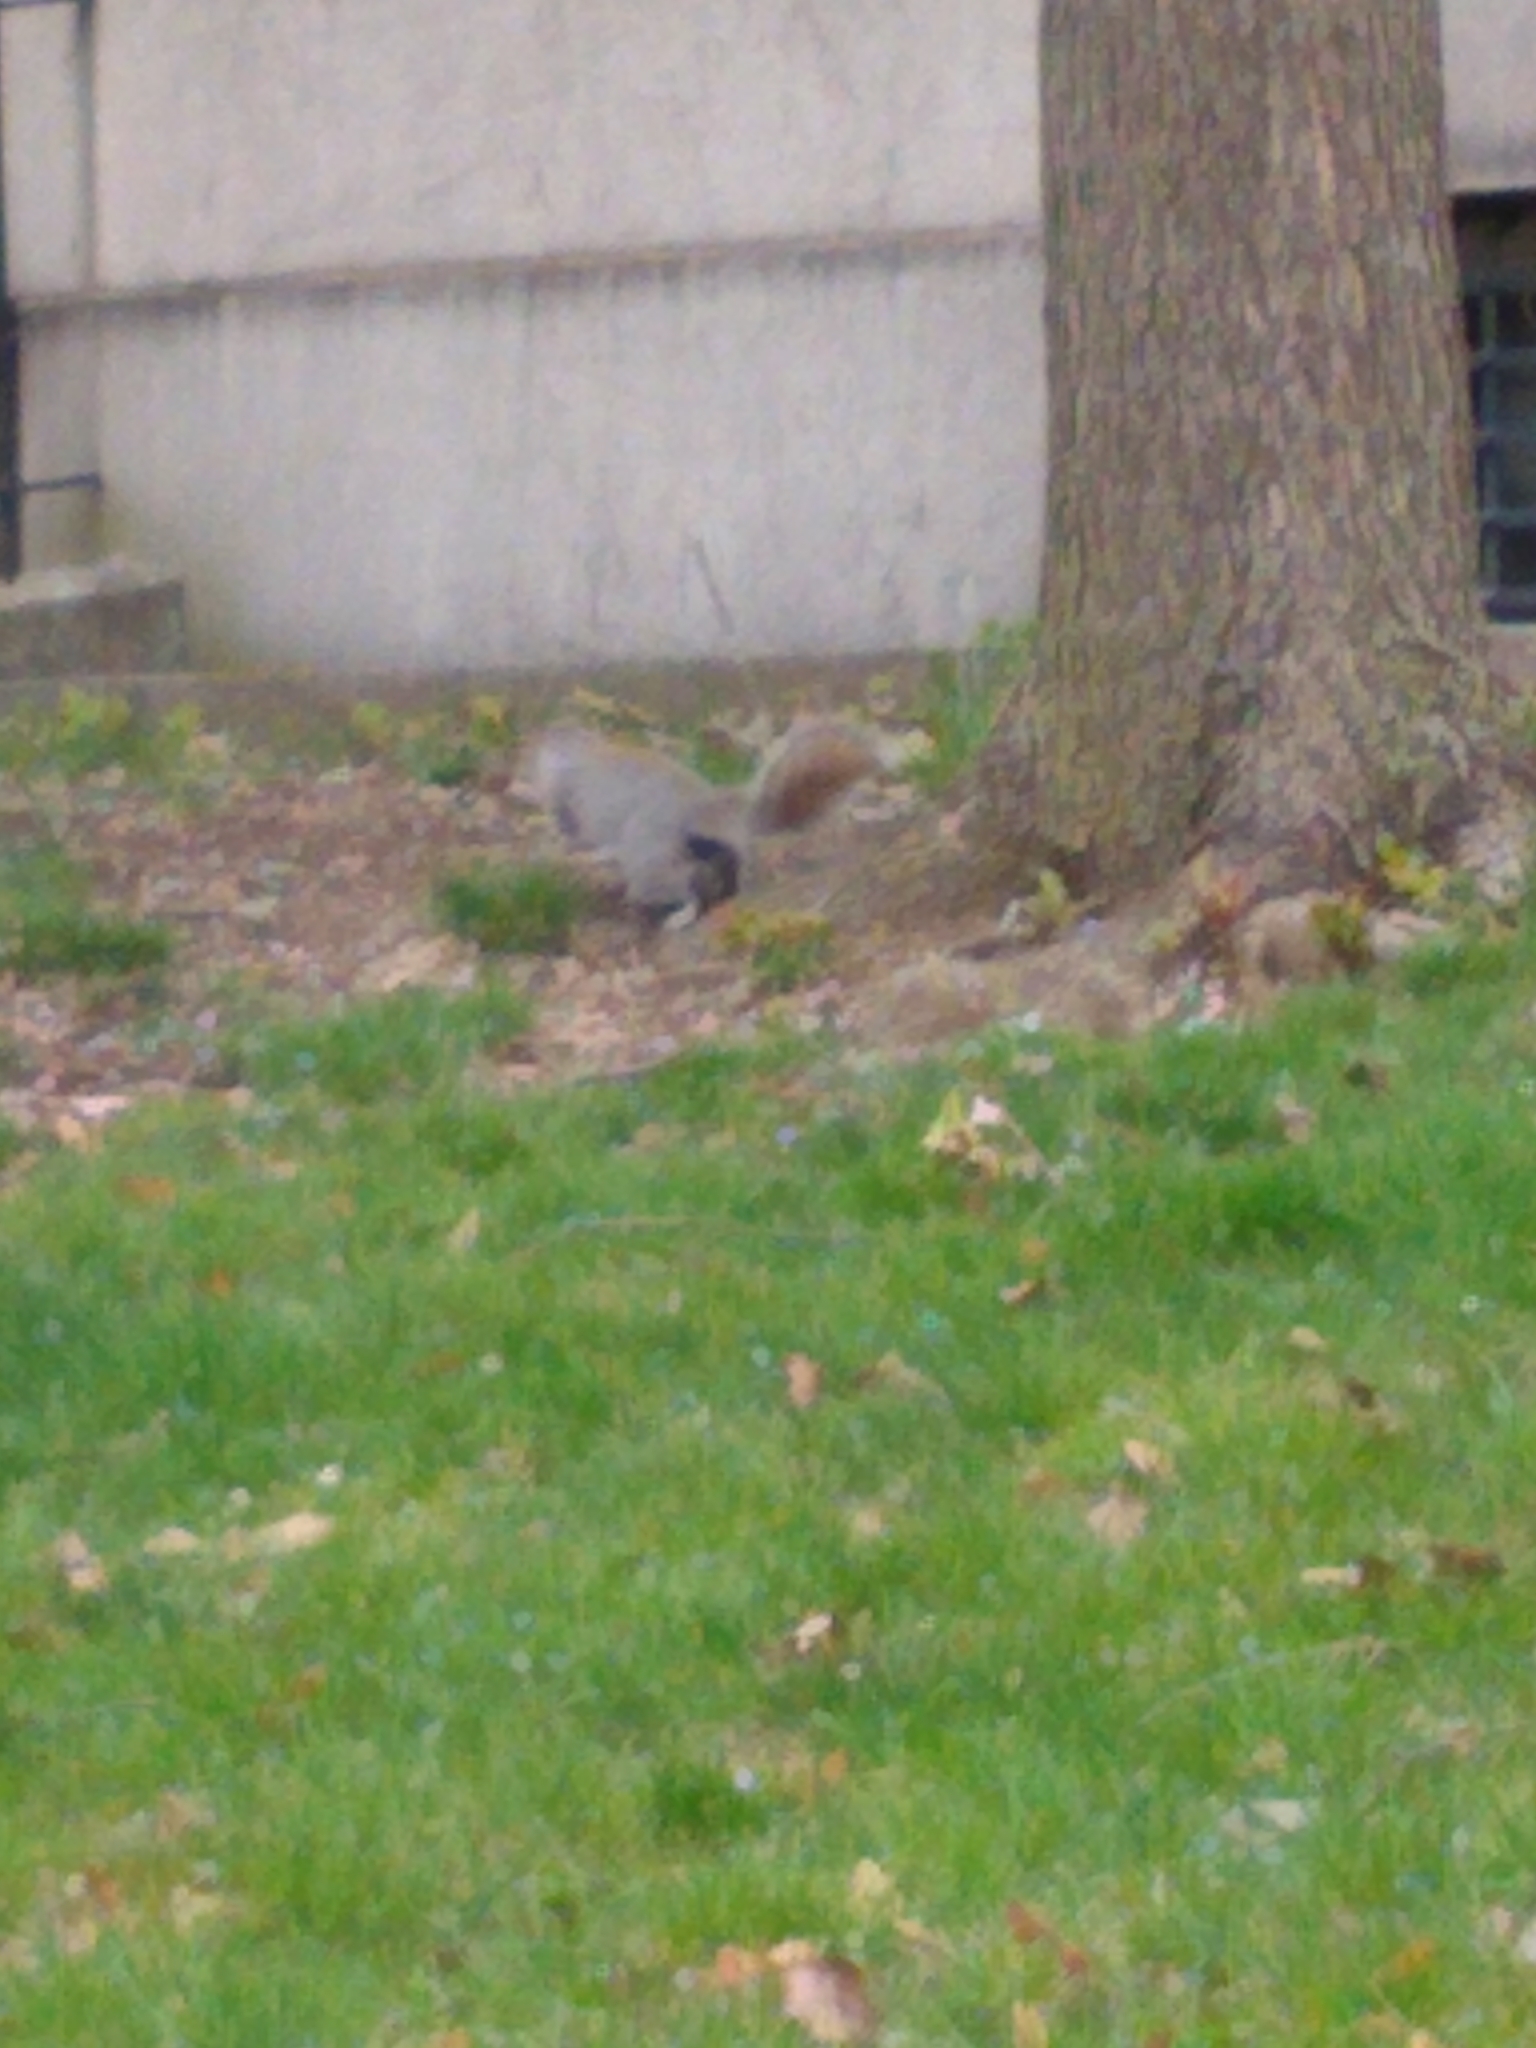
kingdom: Animalia
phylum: Chordata
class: Mammalia
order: Rodentia
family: Sciuridae
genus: Sciurus
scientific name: Sciurus carolinensis
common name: Eastern gray squirrel
